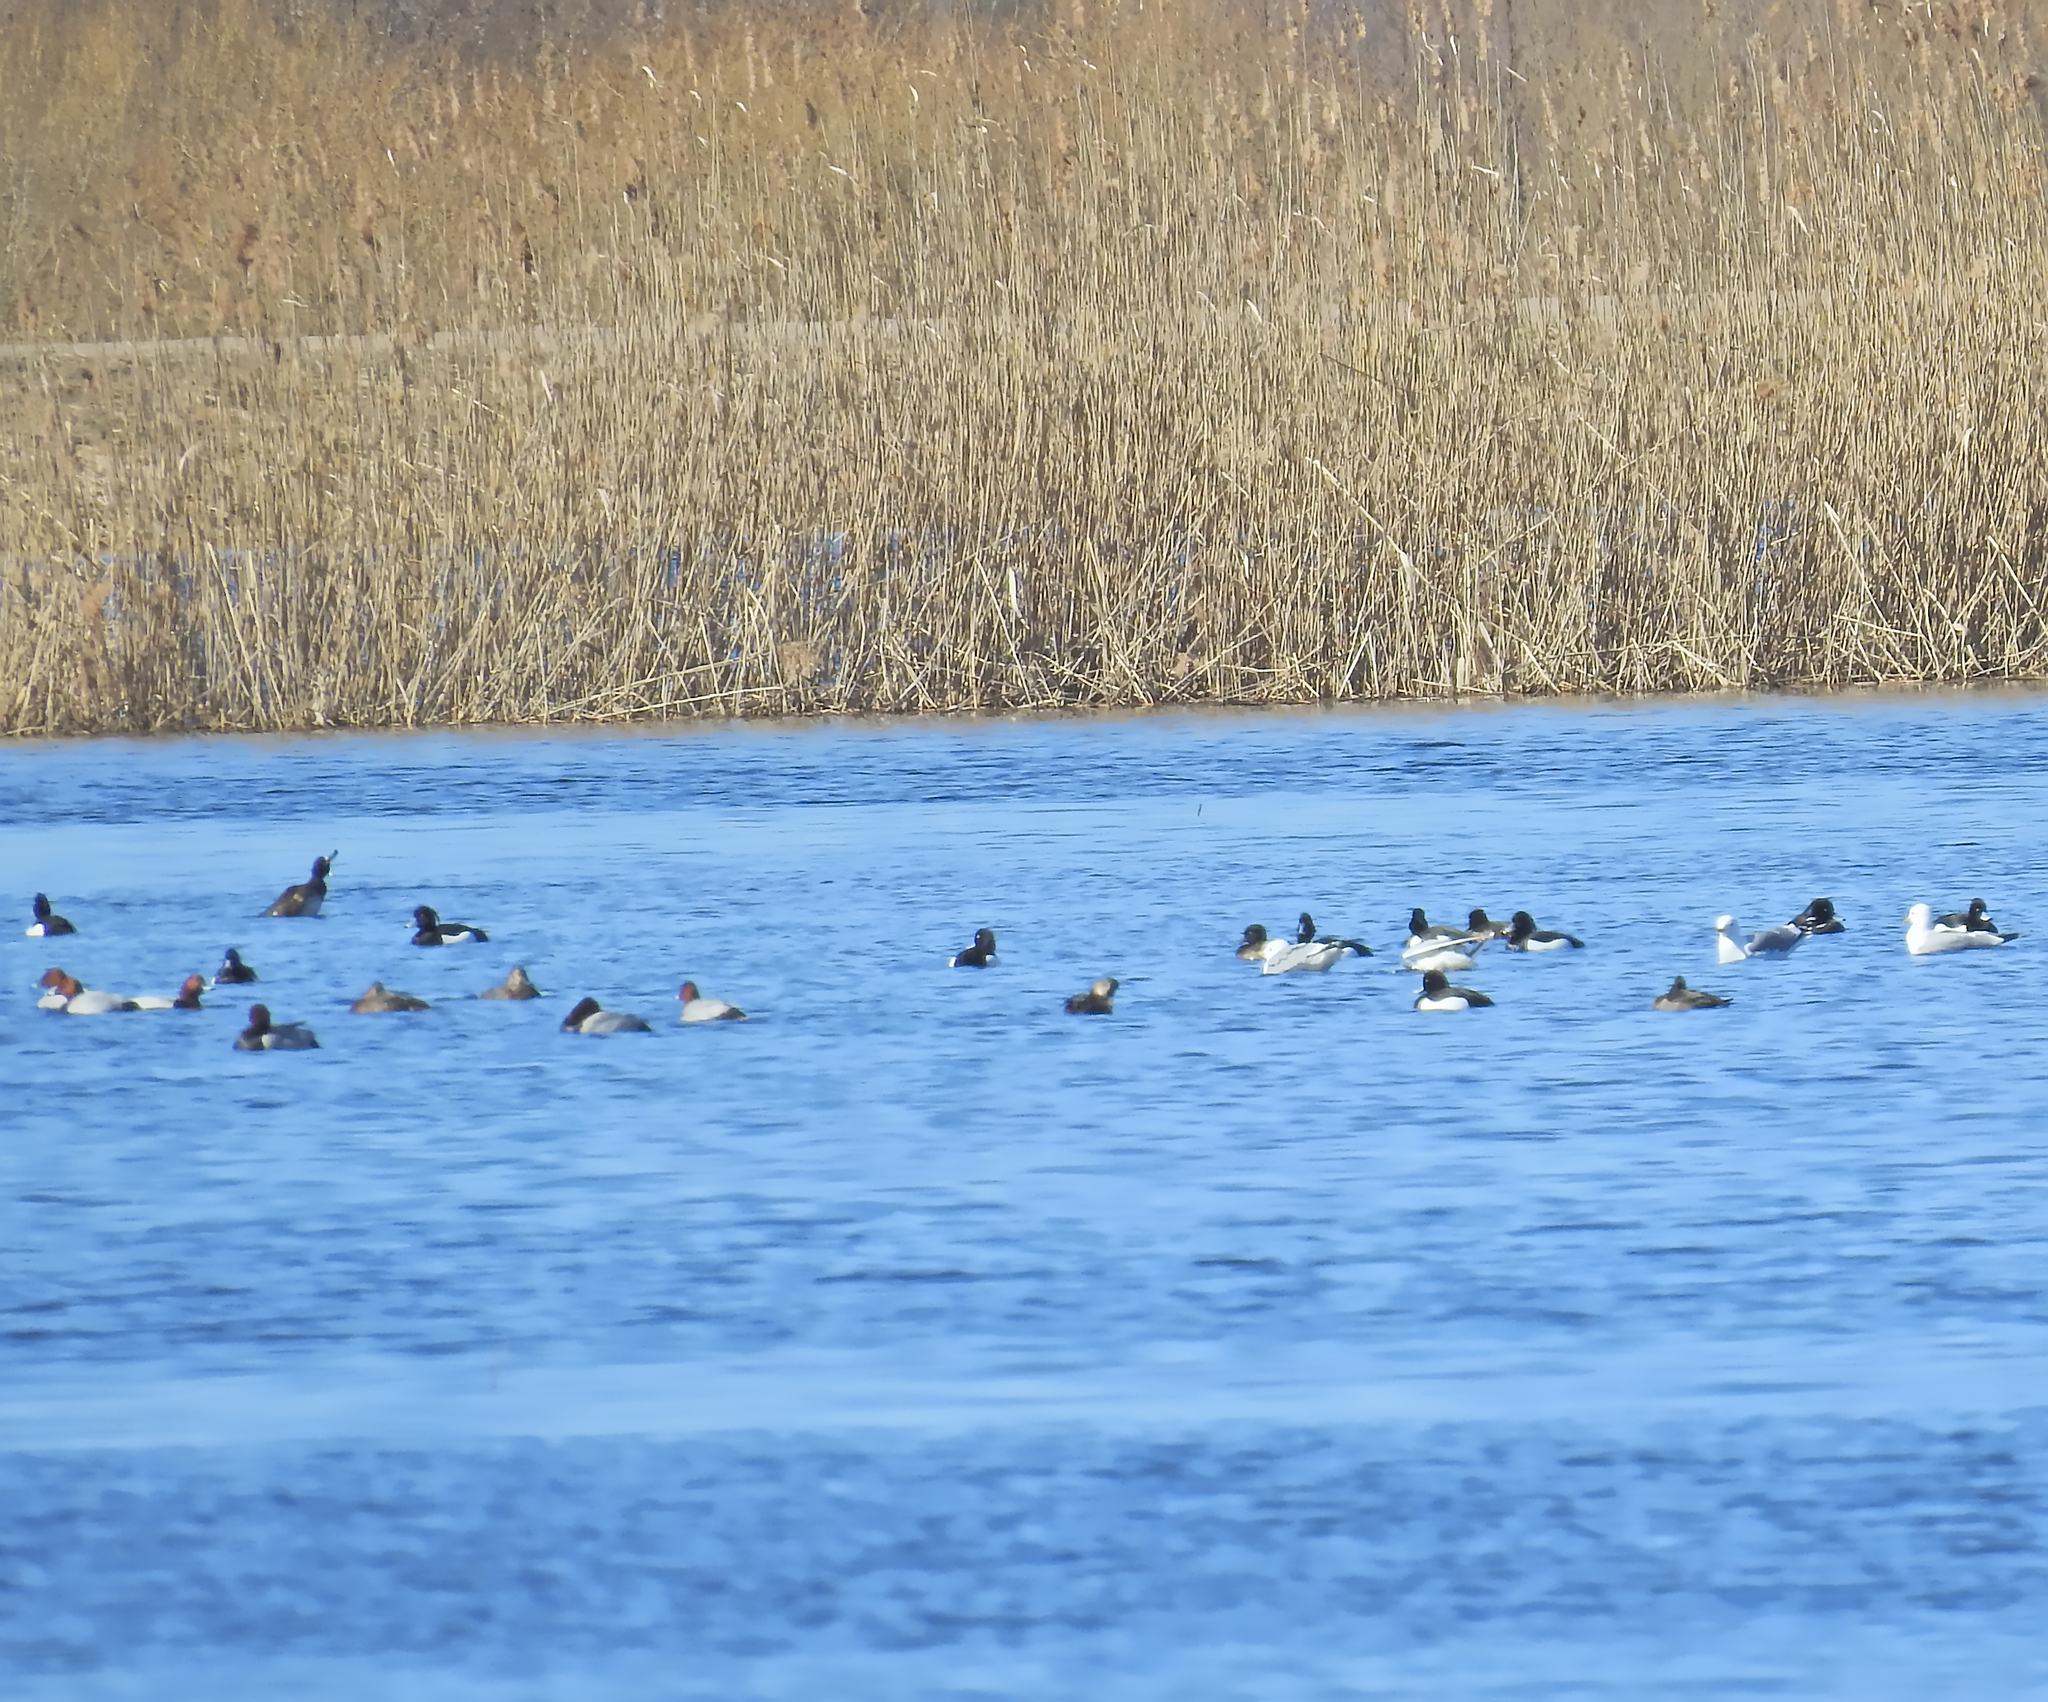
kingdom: Animalia
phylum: Chordata
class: Aves
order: Anseriformes
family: Anatidae
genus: Aythya
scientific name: Aythya fuligula
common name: Tufted duck
